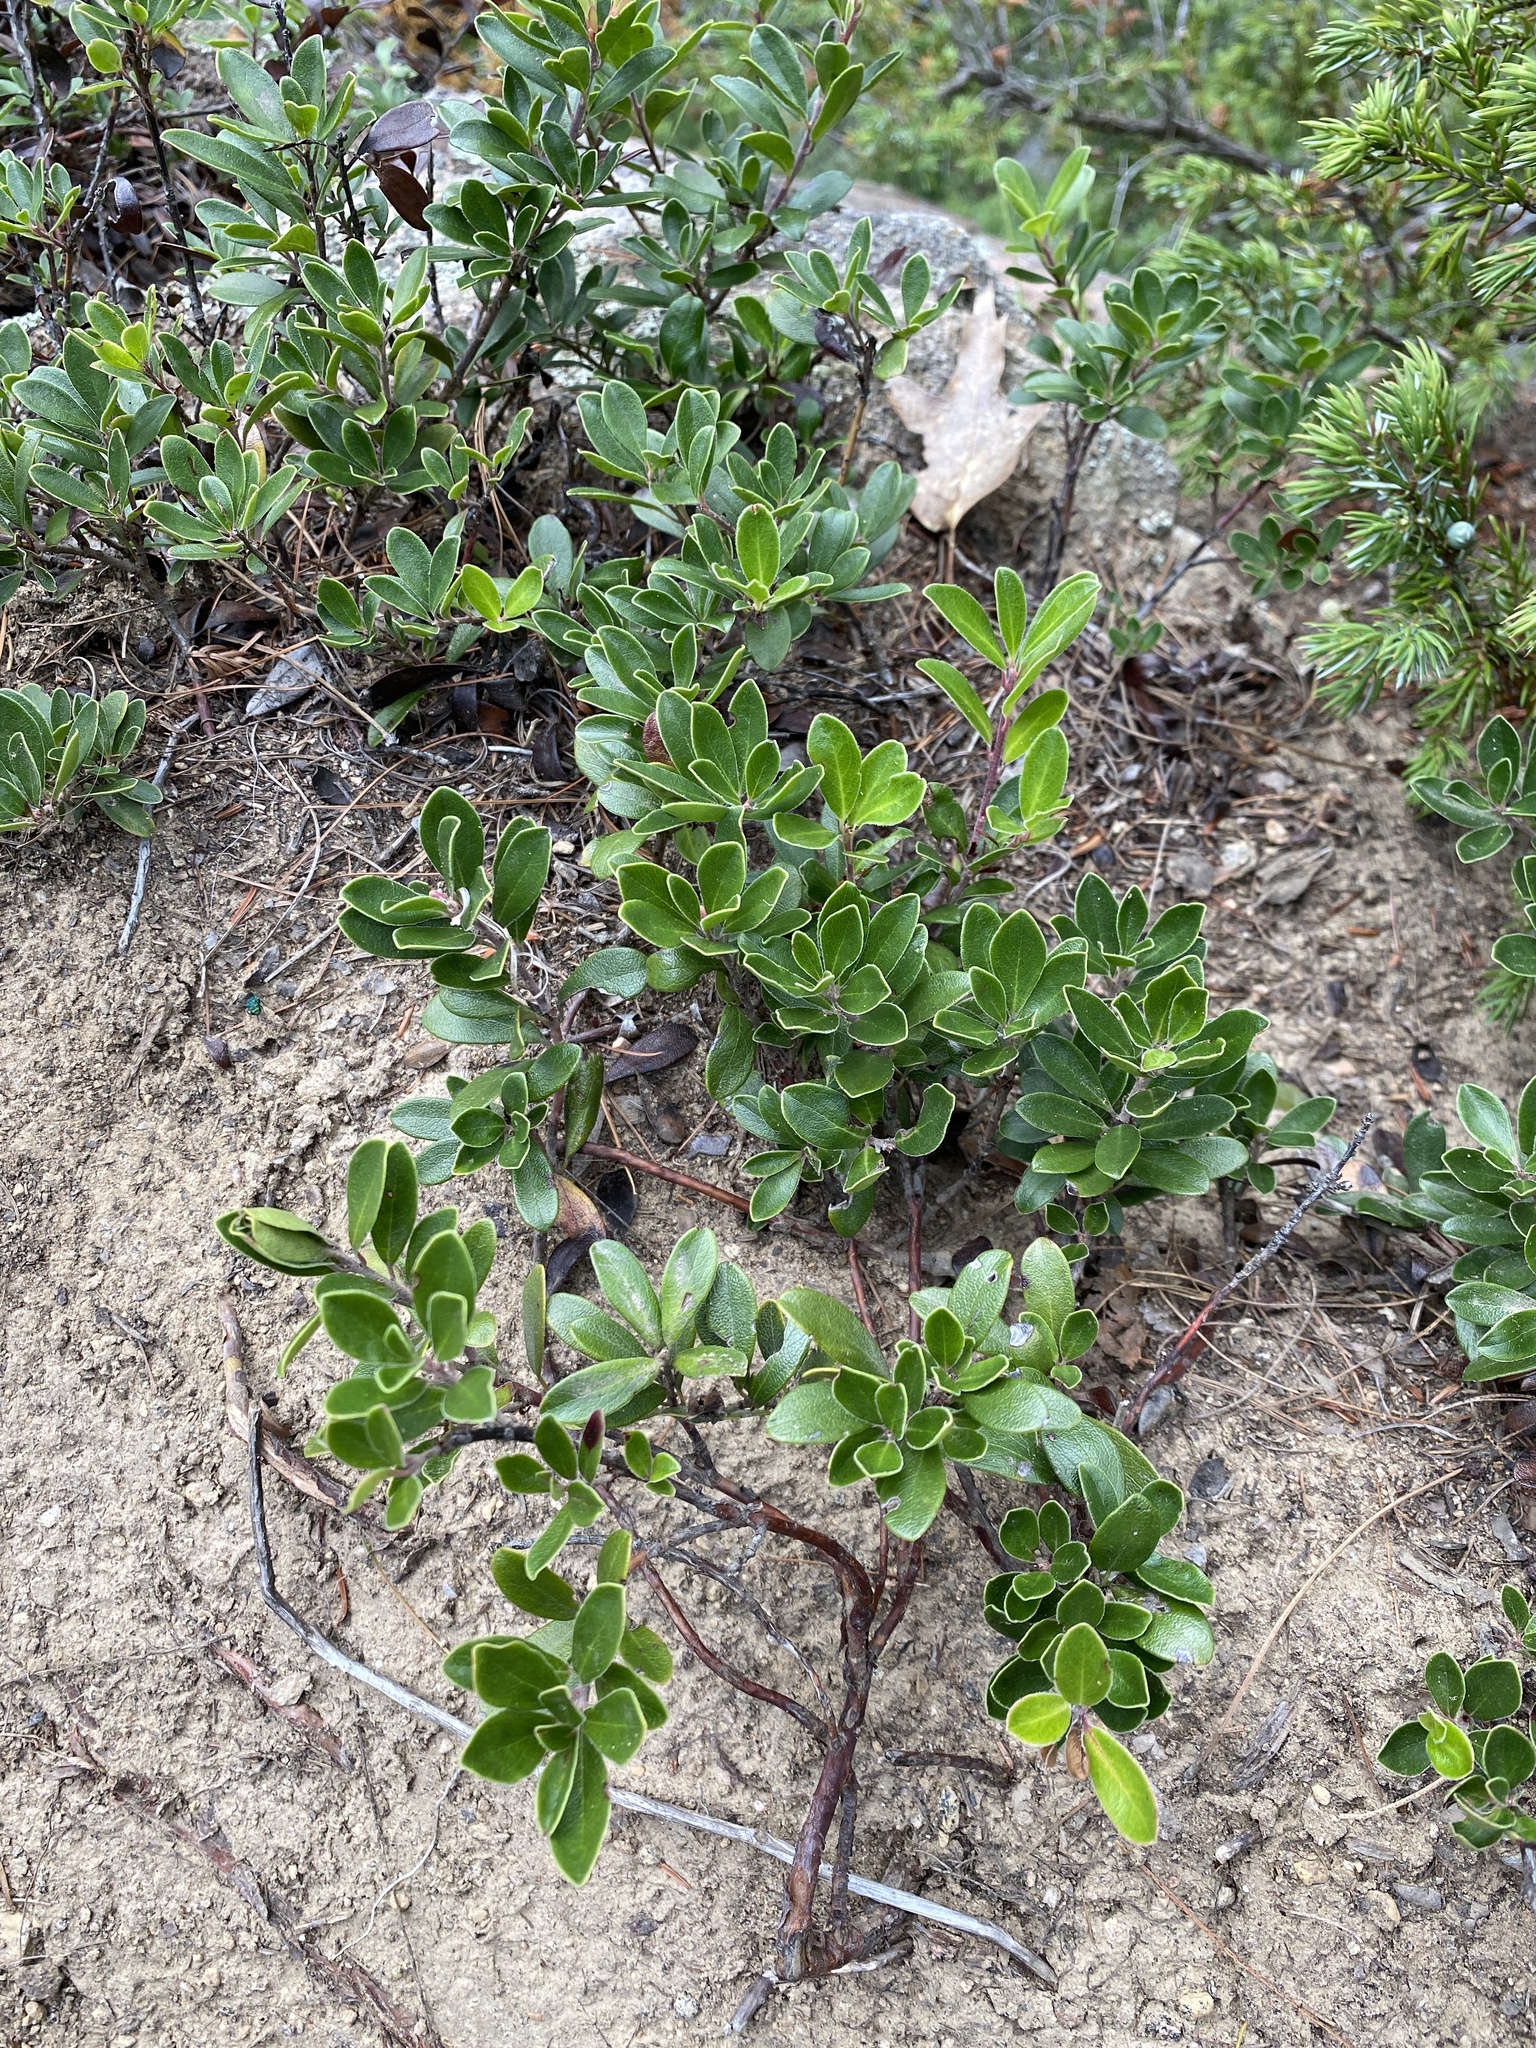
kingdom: Plantae
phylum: Tracheophyta
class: Magnoliopsida
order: Ericales
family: Ericaceae
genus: Arctostaphylos
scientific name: Arctostaphylos uva-ursi
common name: Bearberry
